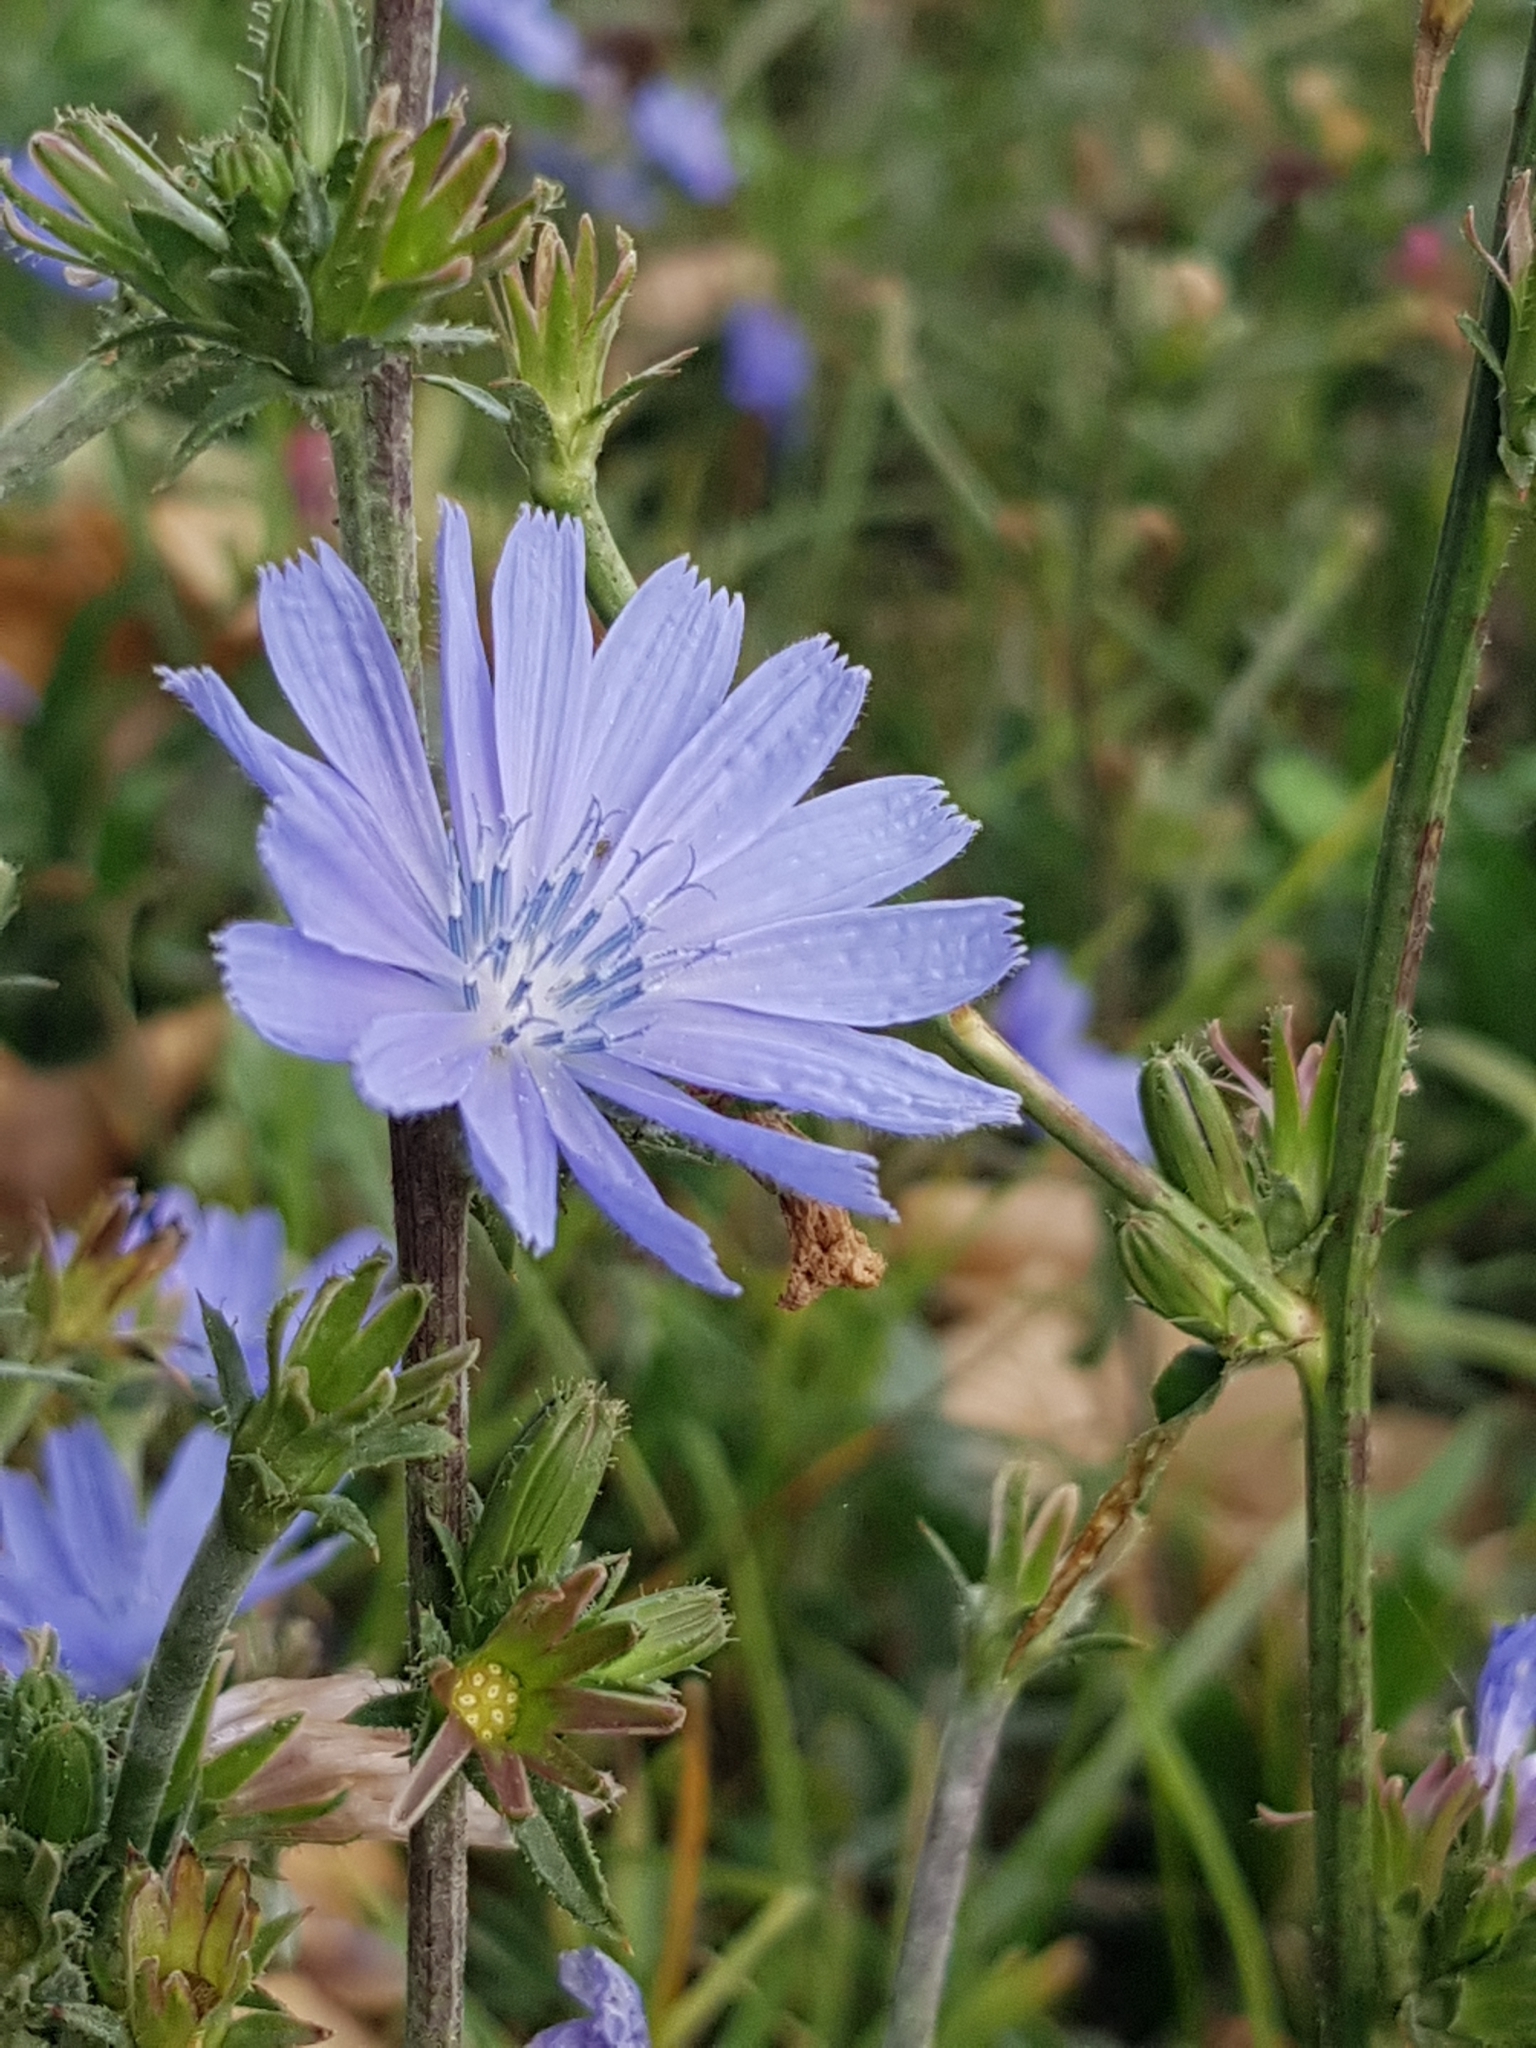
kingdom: Plantae
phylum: Tracheophyta
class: Magnoliopsida
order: Asterales
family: Asteraceae
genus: Cichorium
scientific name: Cichorium intybus
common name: Chicory
